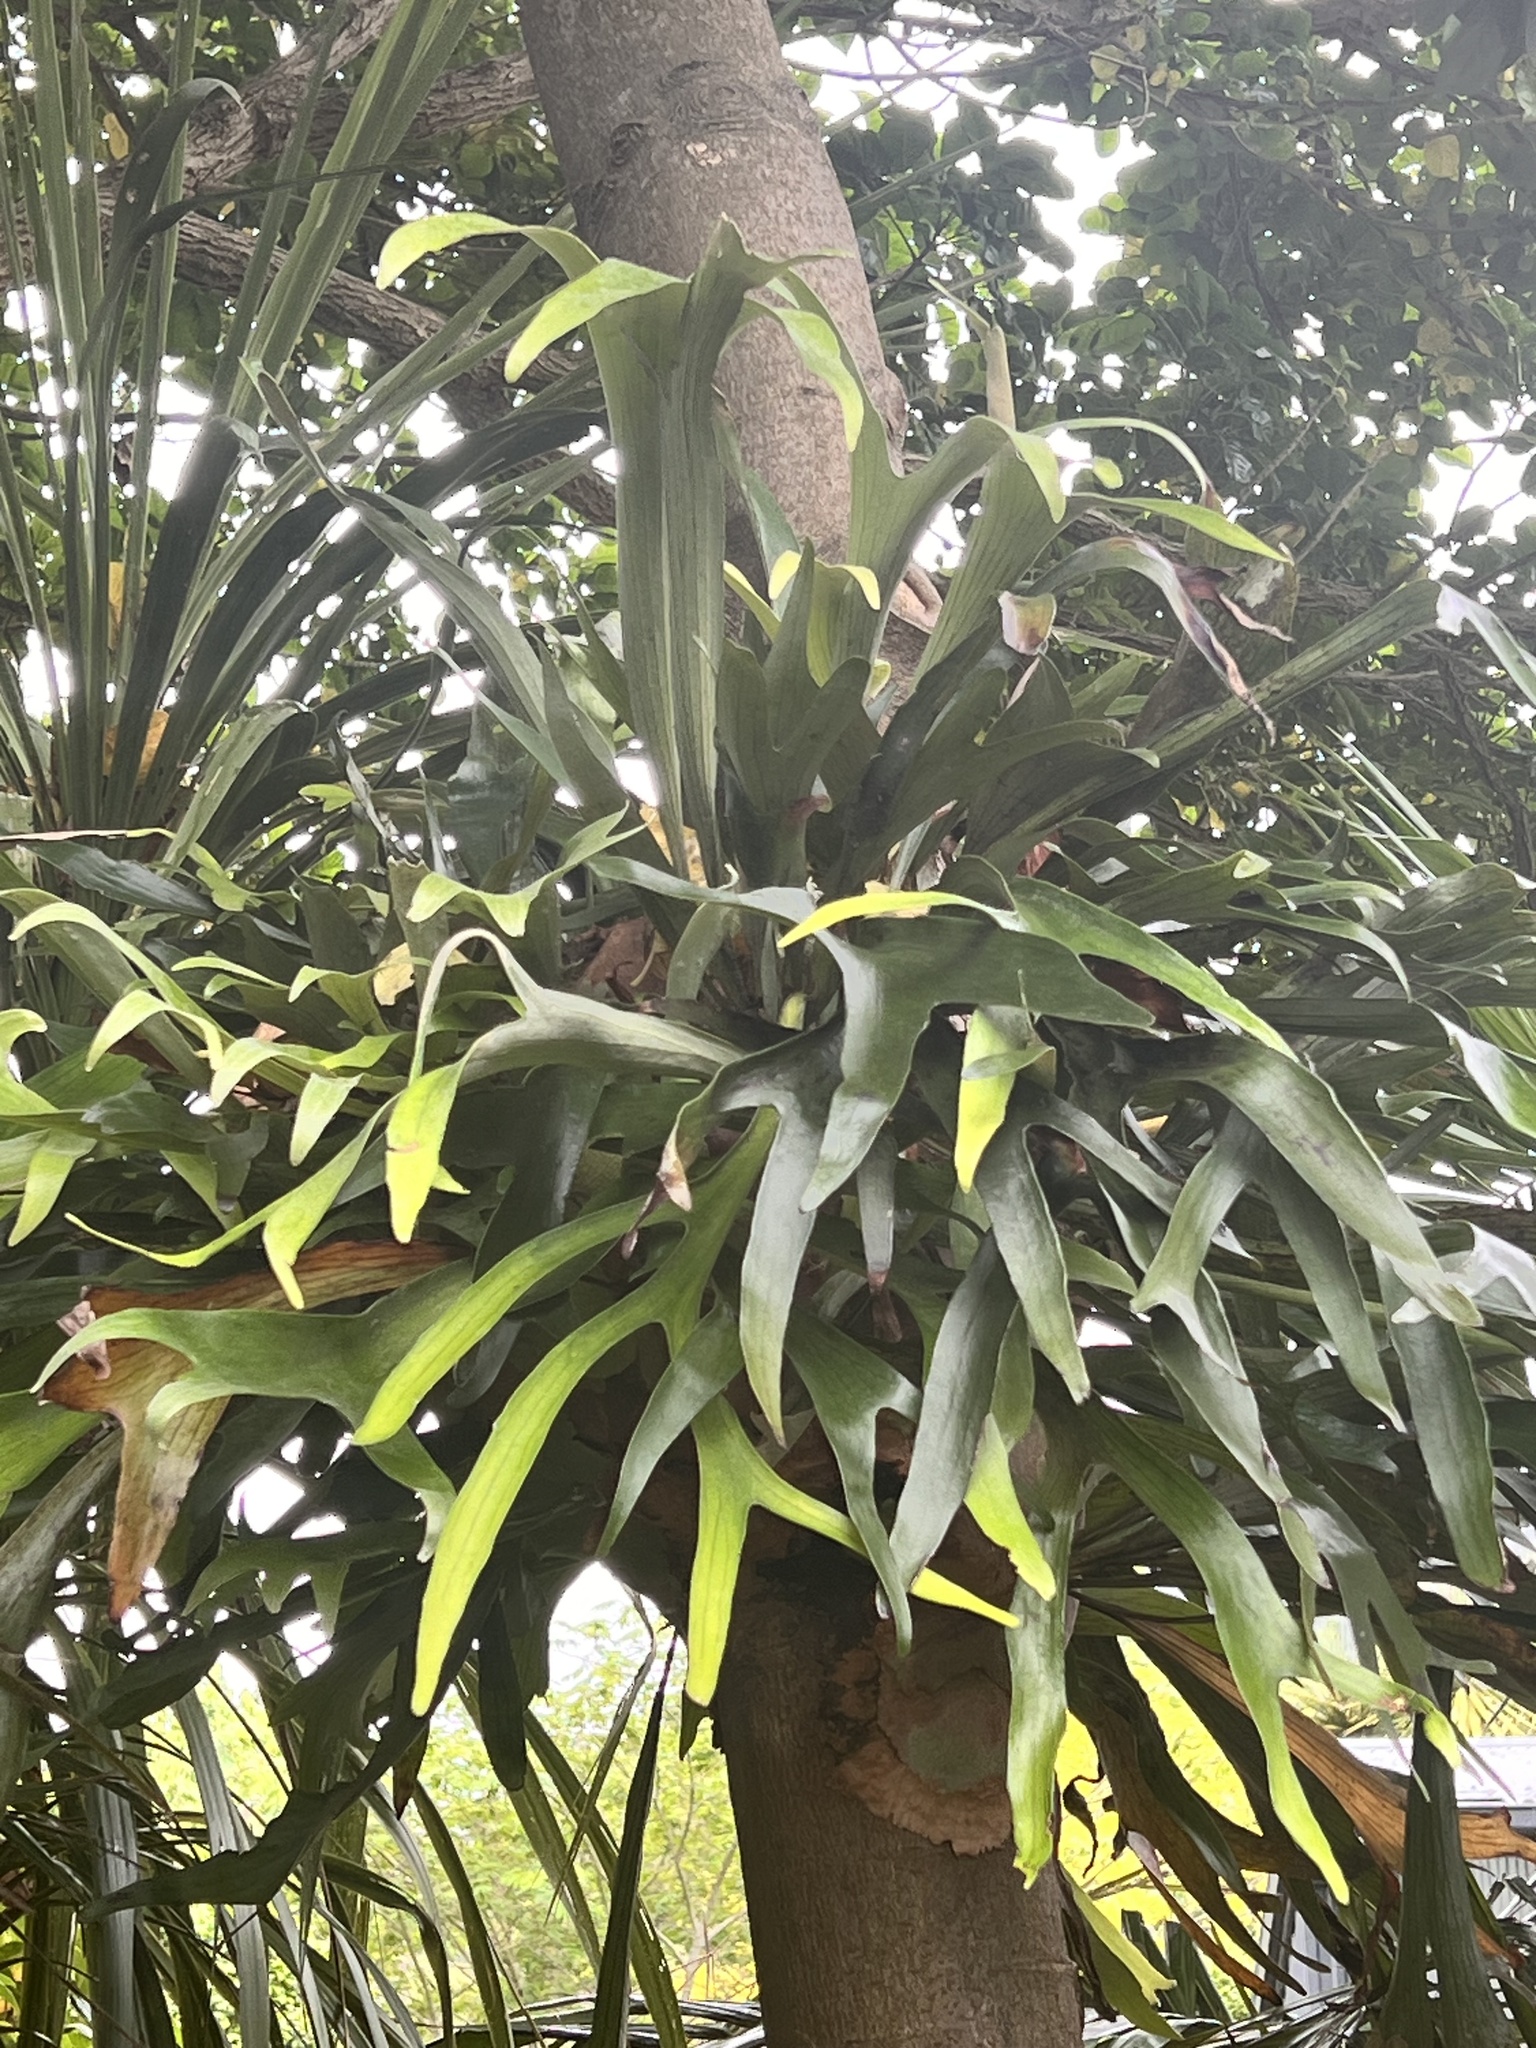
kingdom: Plantae
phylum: Tracheophyta
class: Polypodiopsida
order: Polypodiales
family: Polypodiaceae
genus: Platycerium
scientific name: Platycerium bifurcatum
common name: Elkhorn fern
